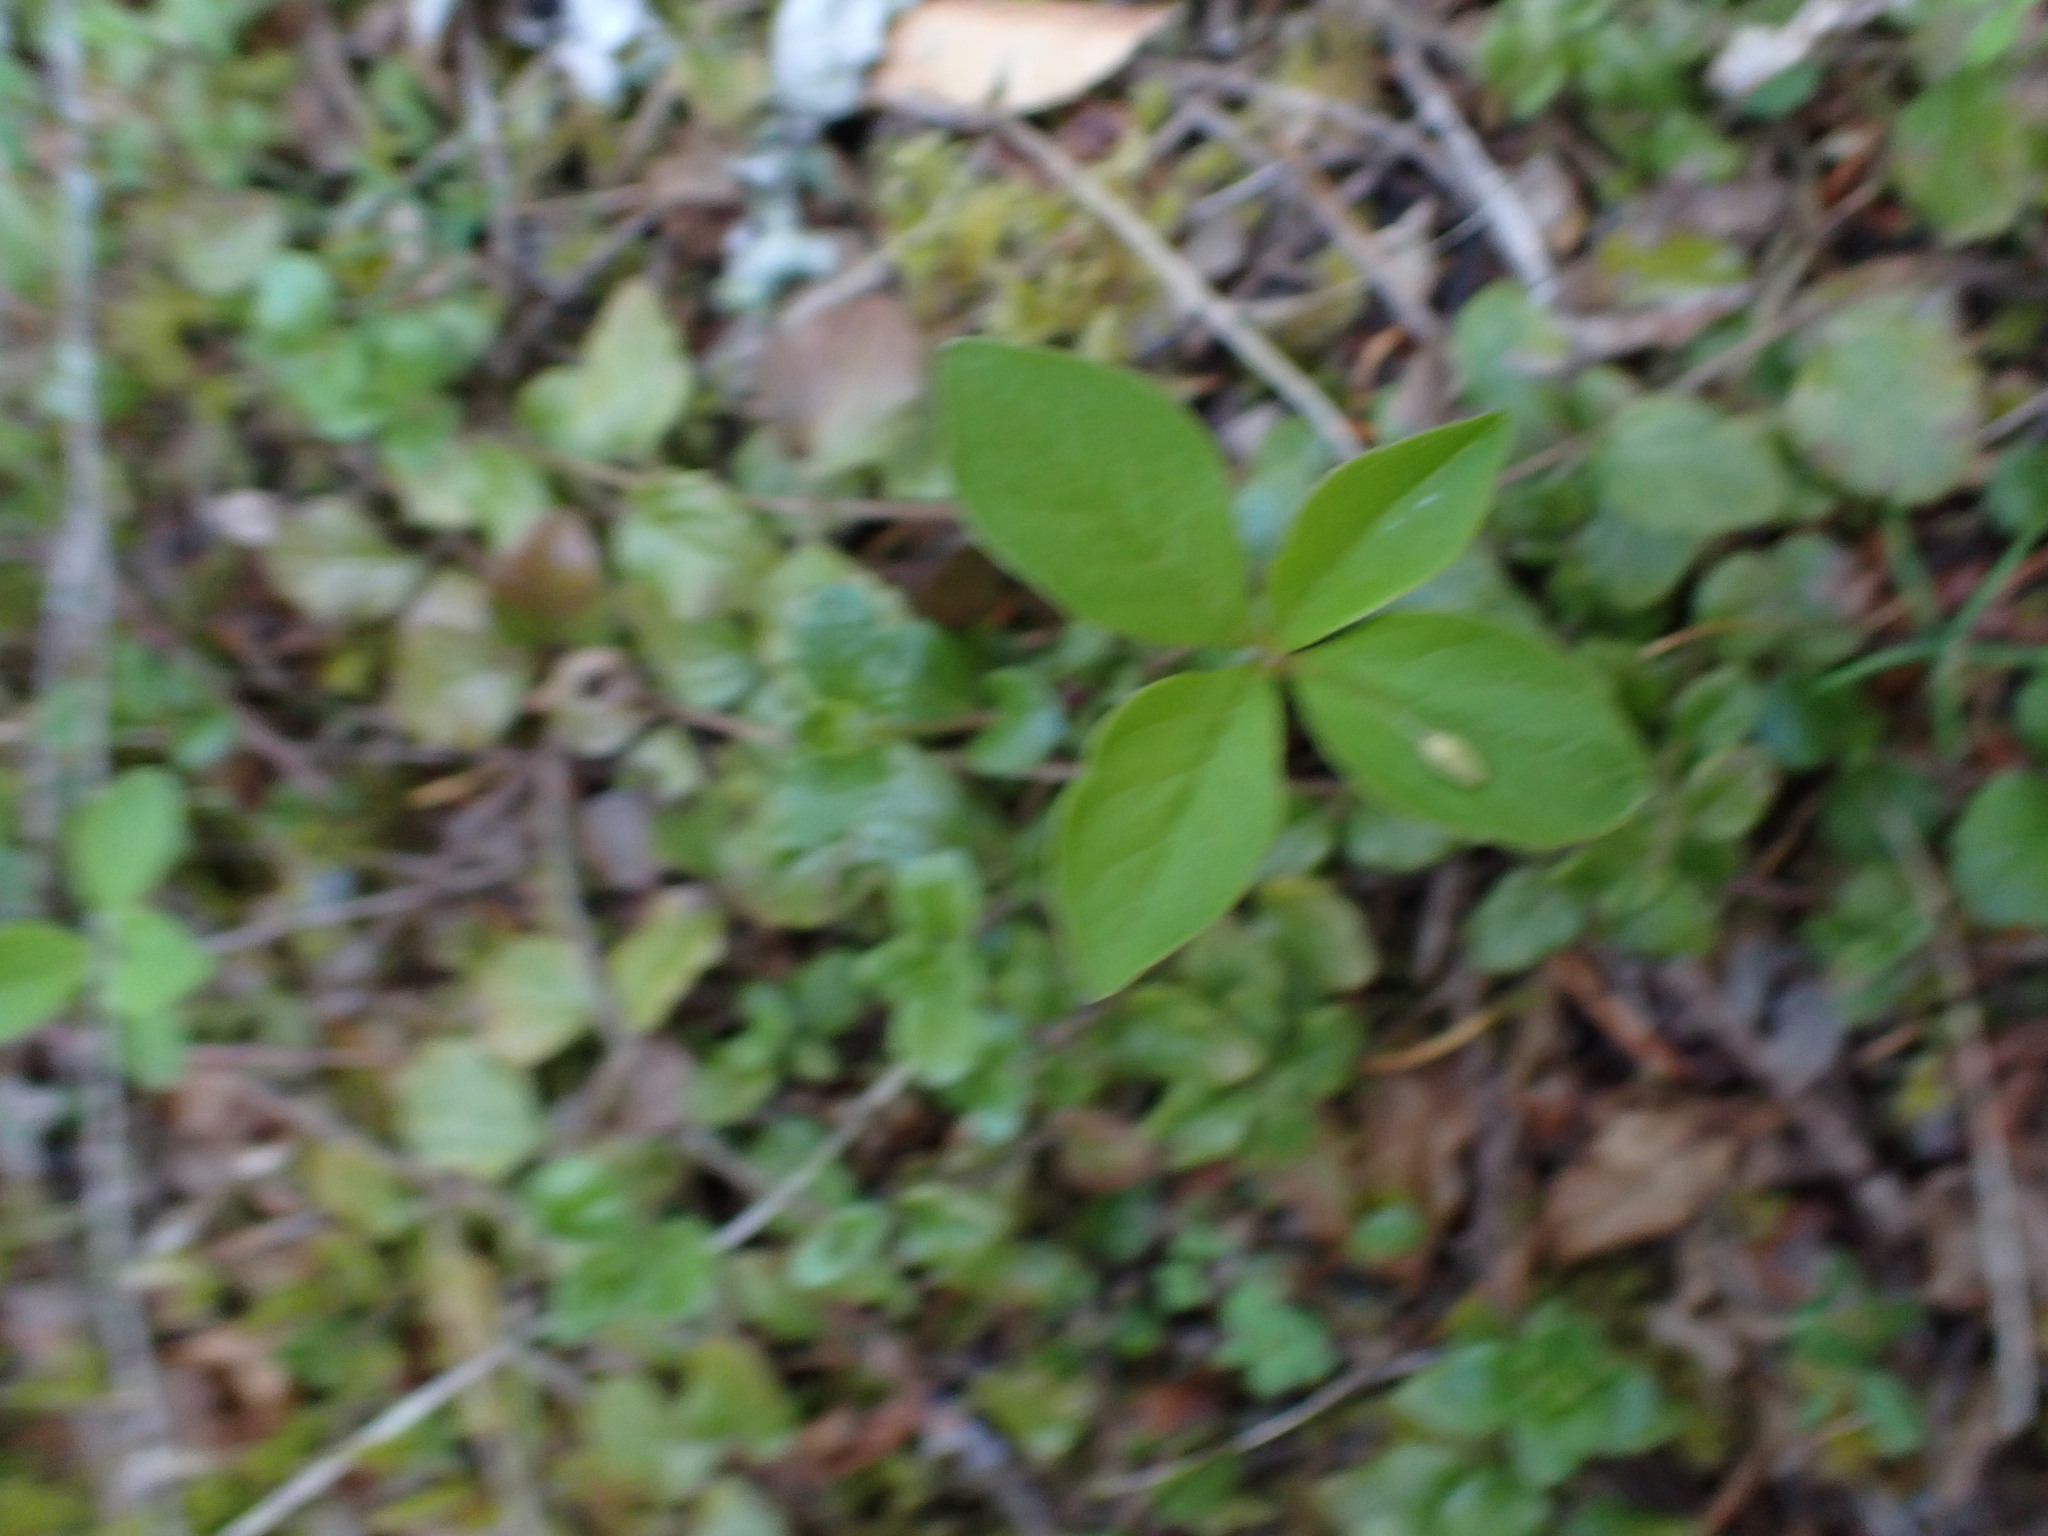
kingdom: Plantae
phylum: Tracheophyta
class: Magnoliopsida
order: Ericales
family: Primulaceae
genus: Lysimachia
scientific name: Lysimachia latifolia
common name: Pacific starflower
